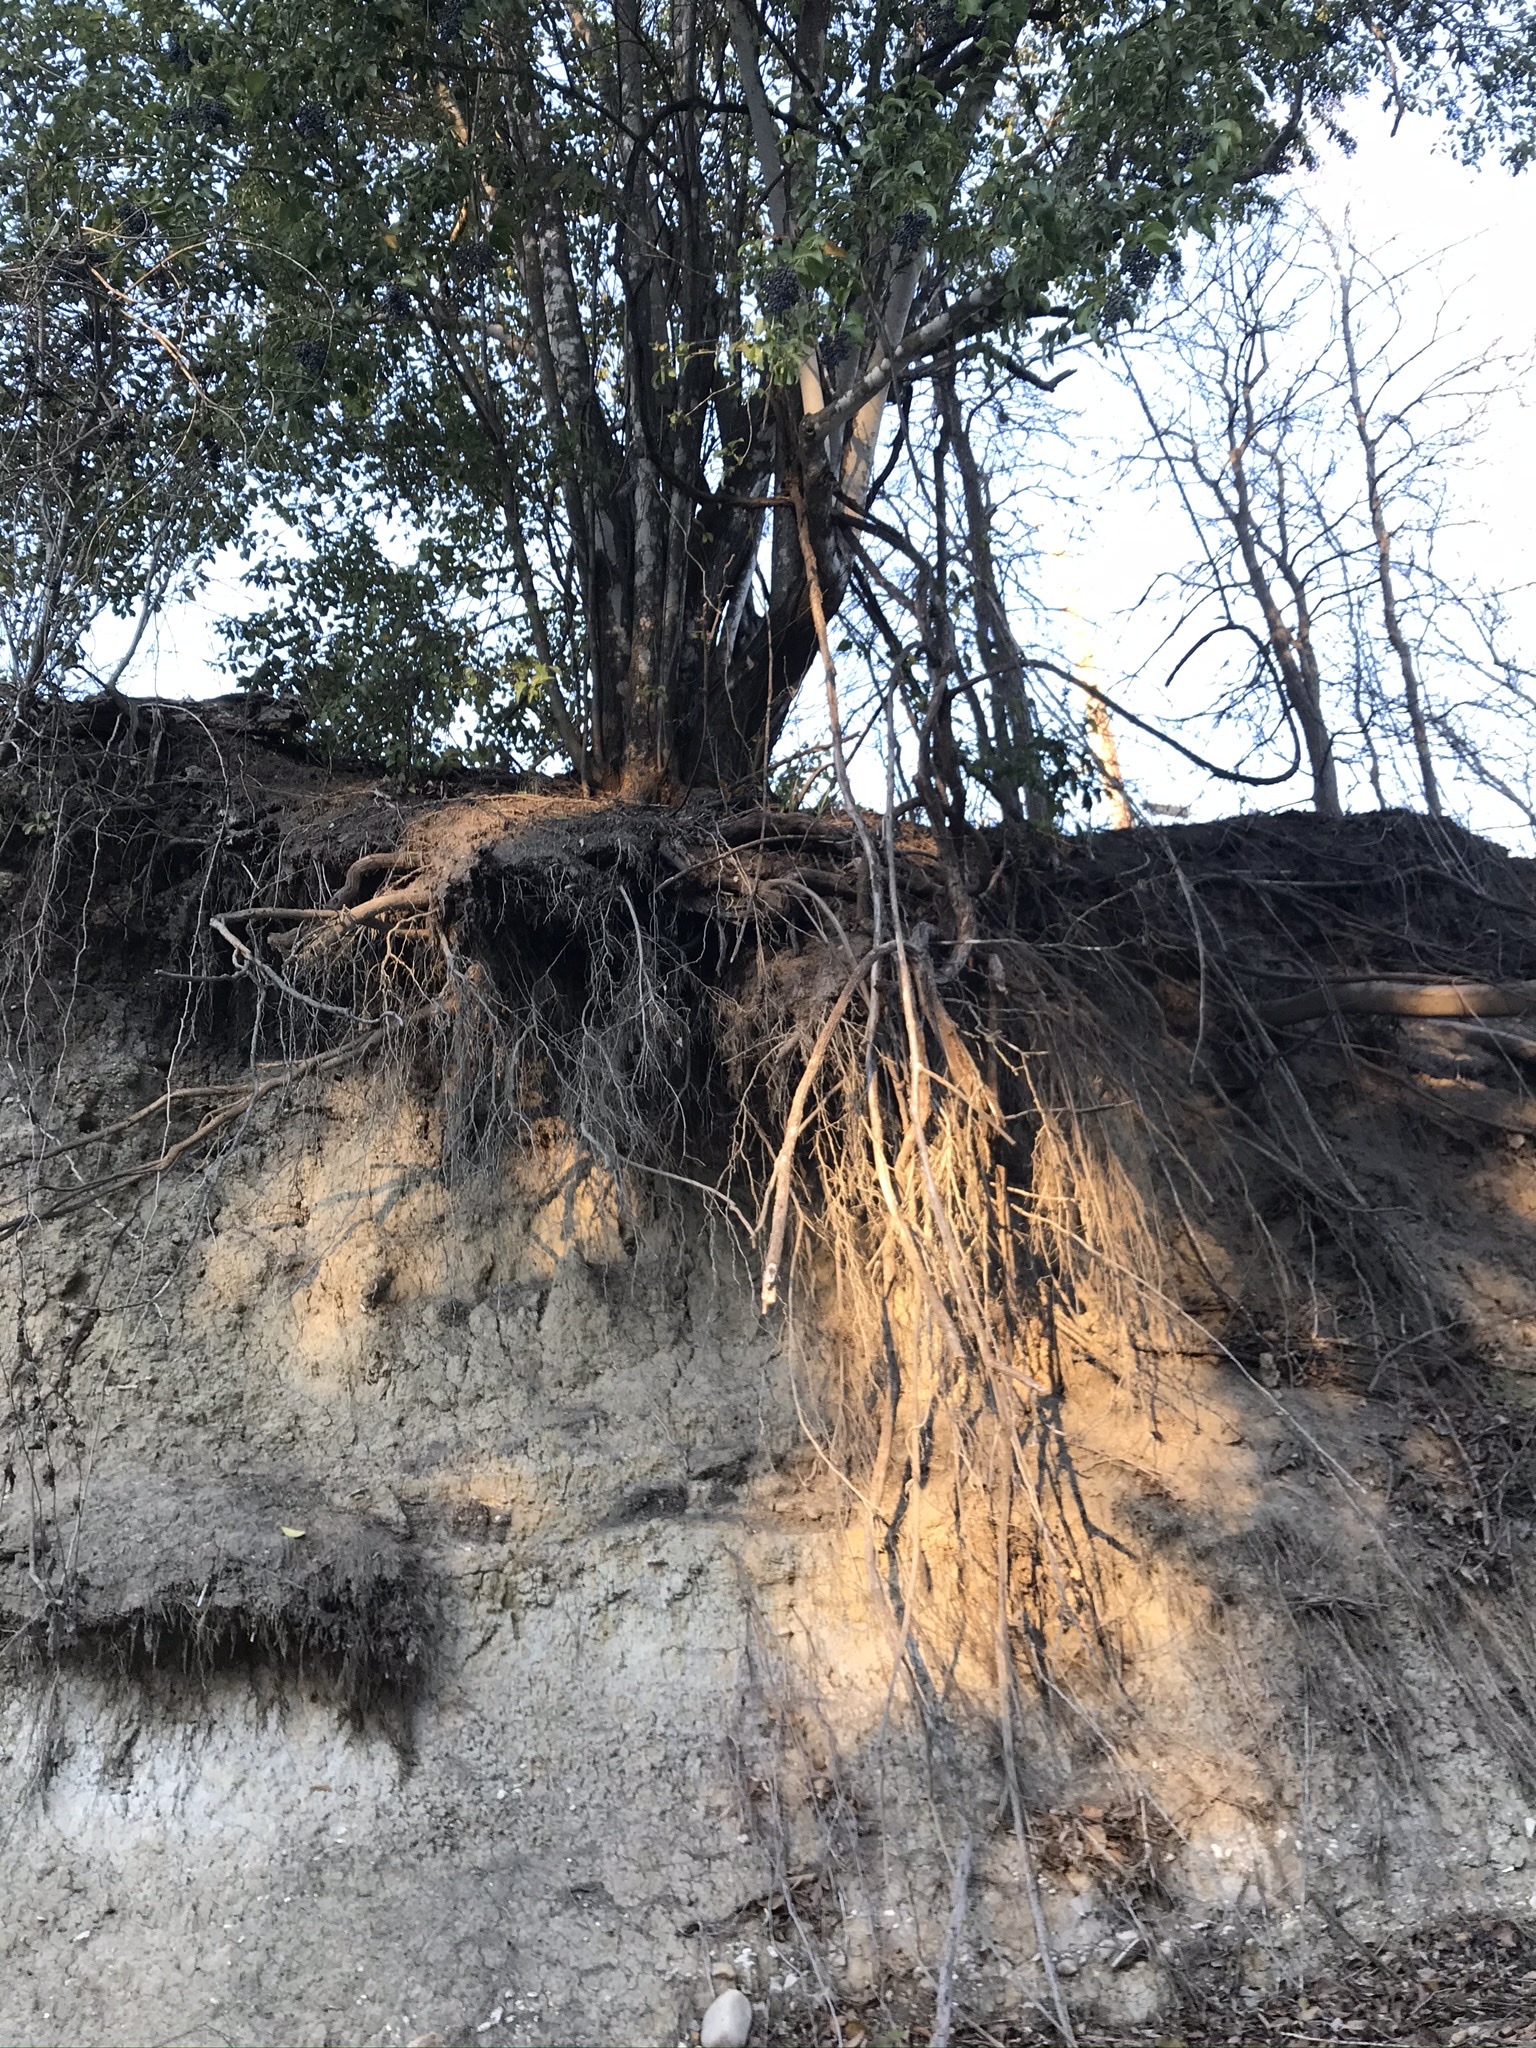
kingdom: Plantae
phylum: Tracheophyta
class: Magnoliopsida
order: Lamiales
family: Oleaceae
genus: Ligustrum
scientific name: Ligustrum lucidum
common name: Glossy privet
